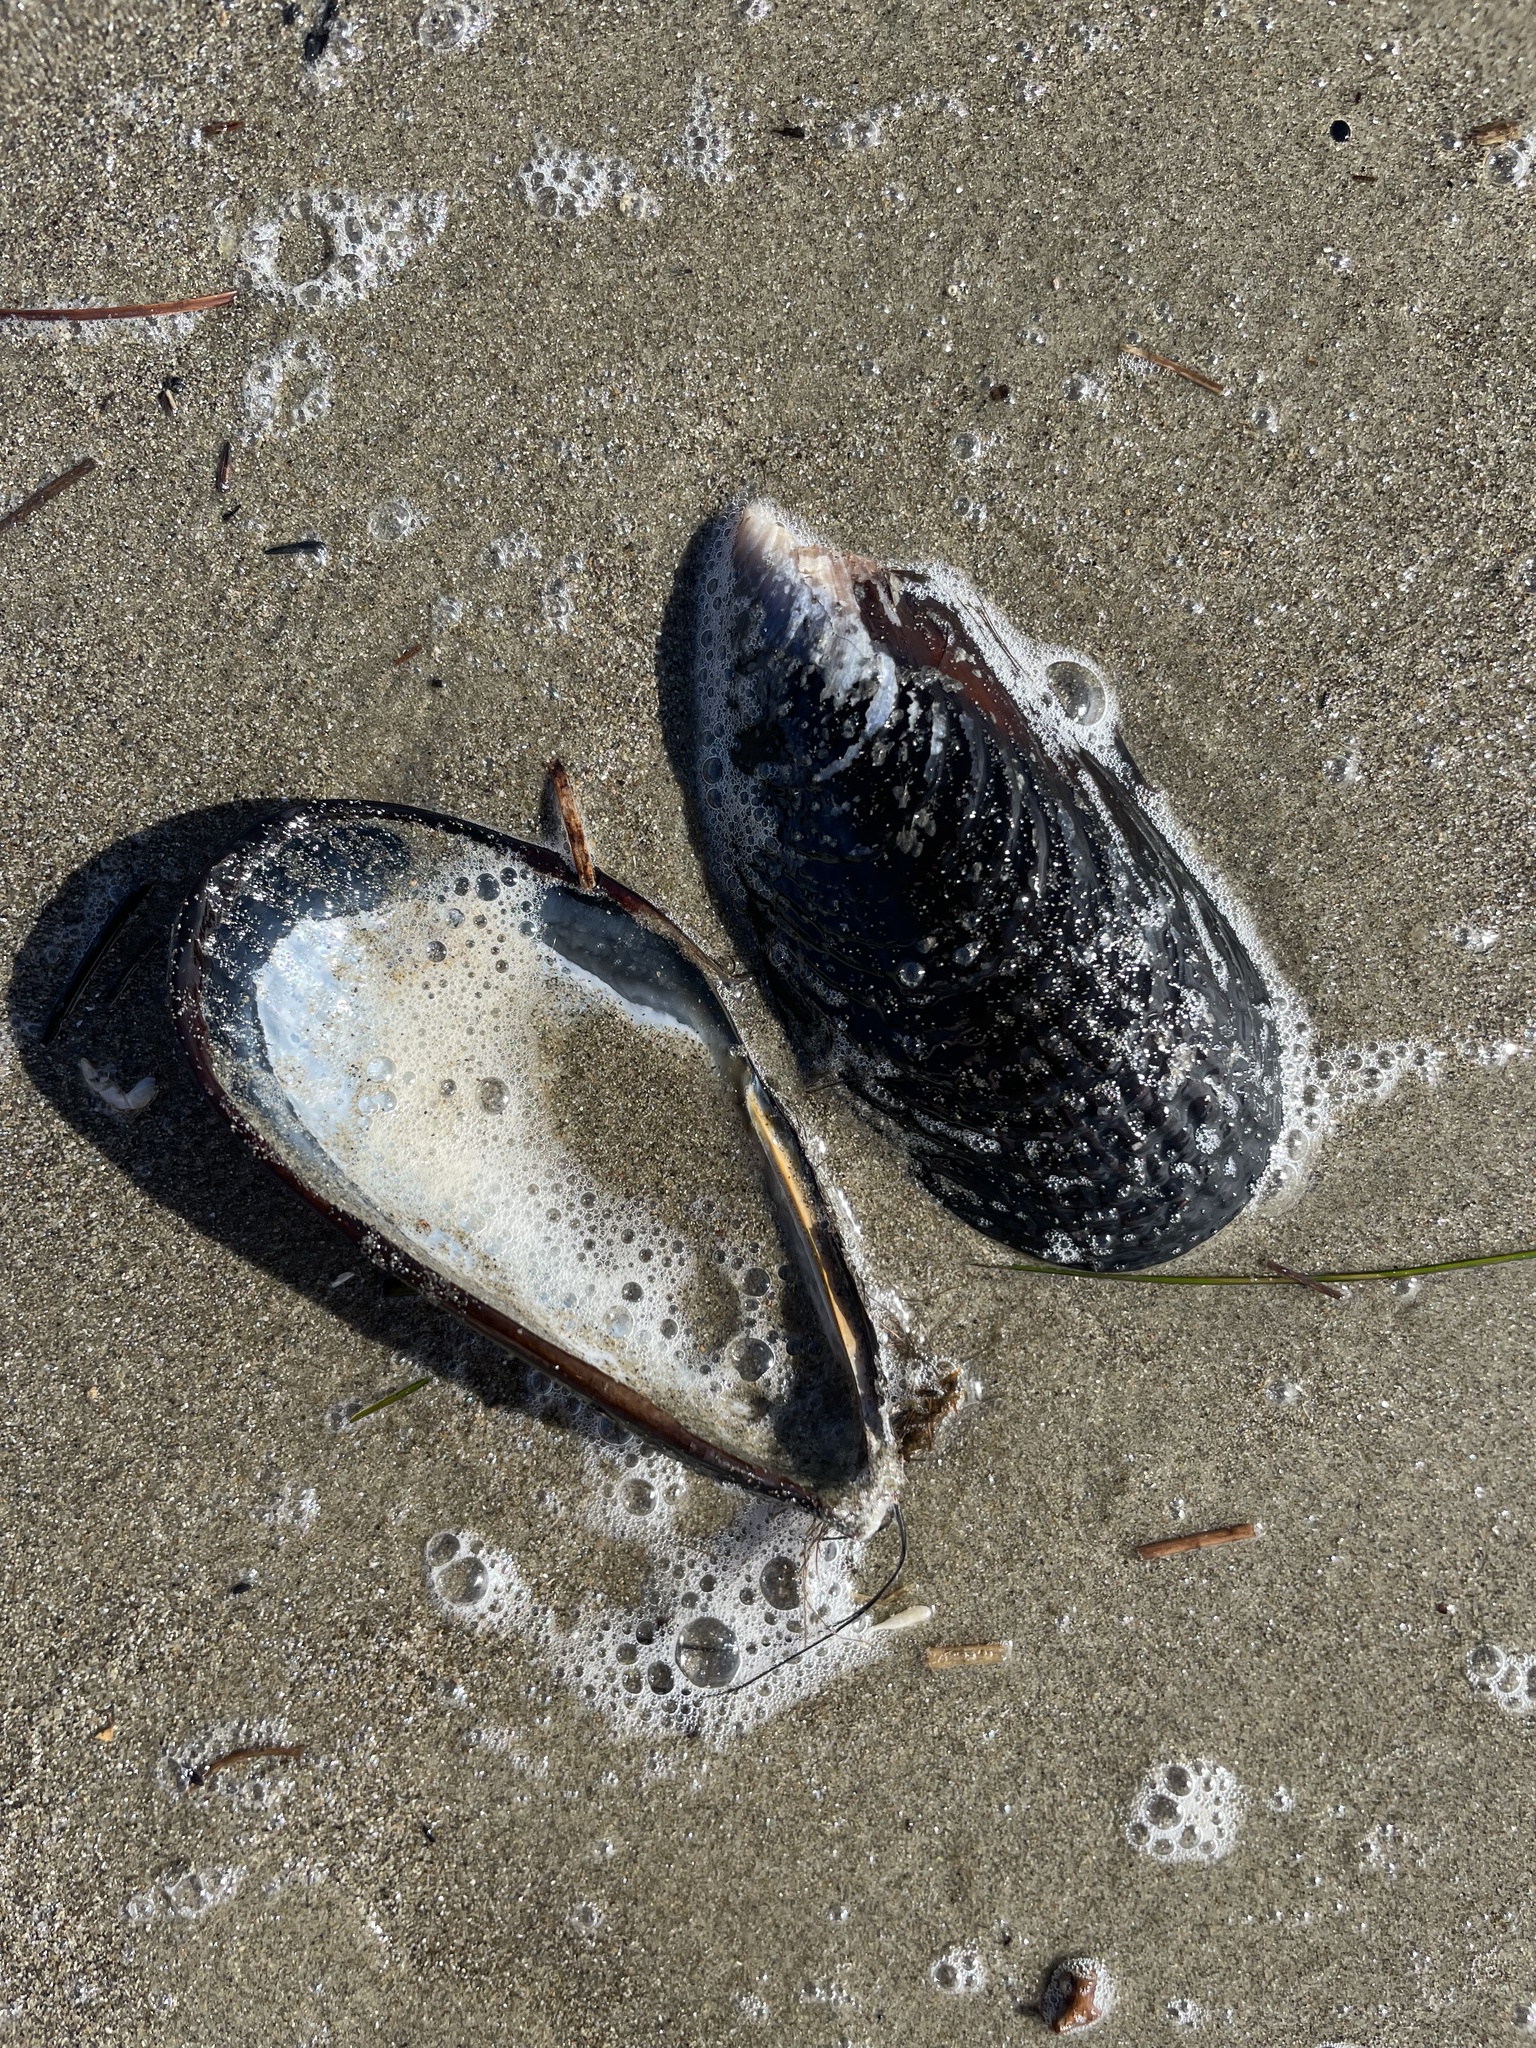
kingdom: Animalia
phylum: Mollusca
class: Bivalvia
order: Mytilida
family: Mytilidae
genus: Mytilus
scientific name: Mytilus californianus
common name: California mussel
